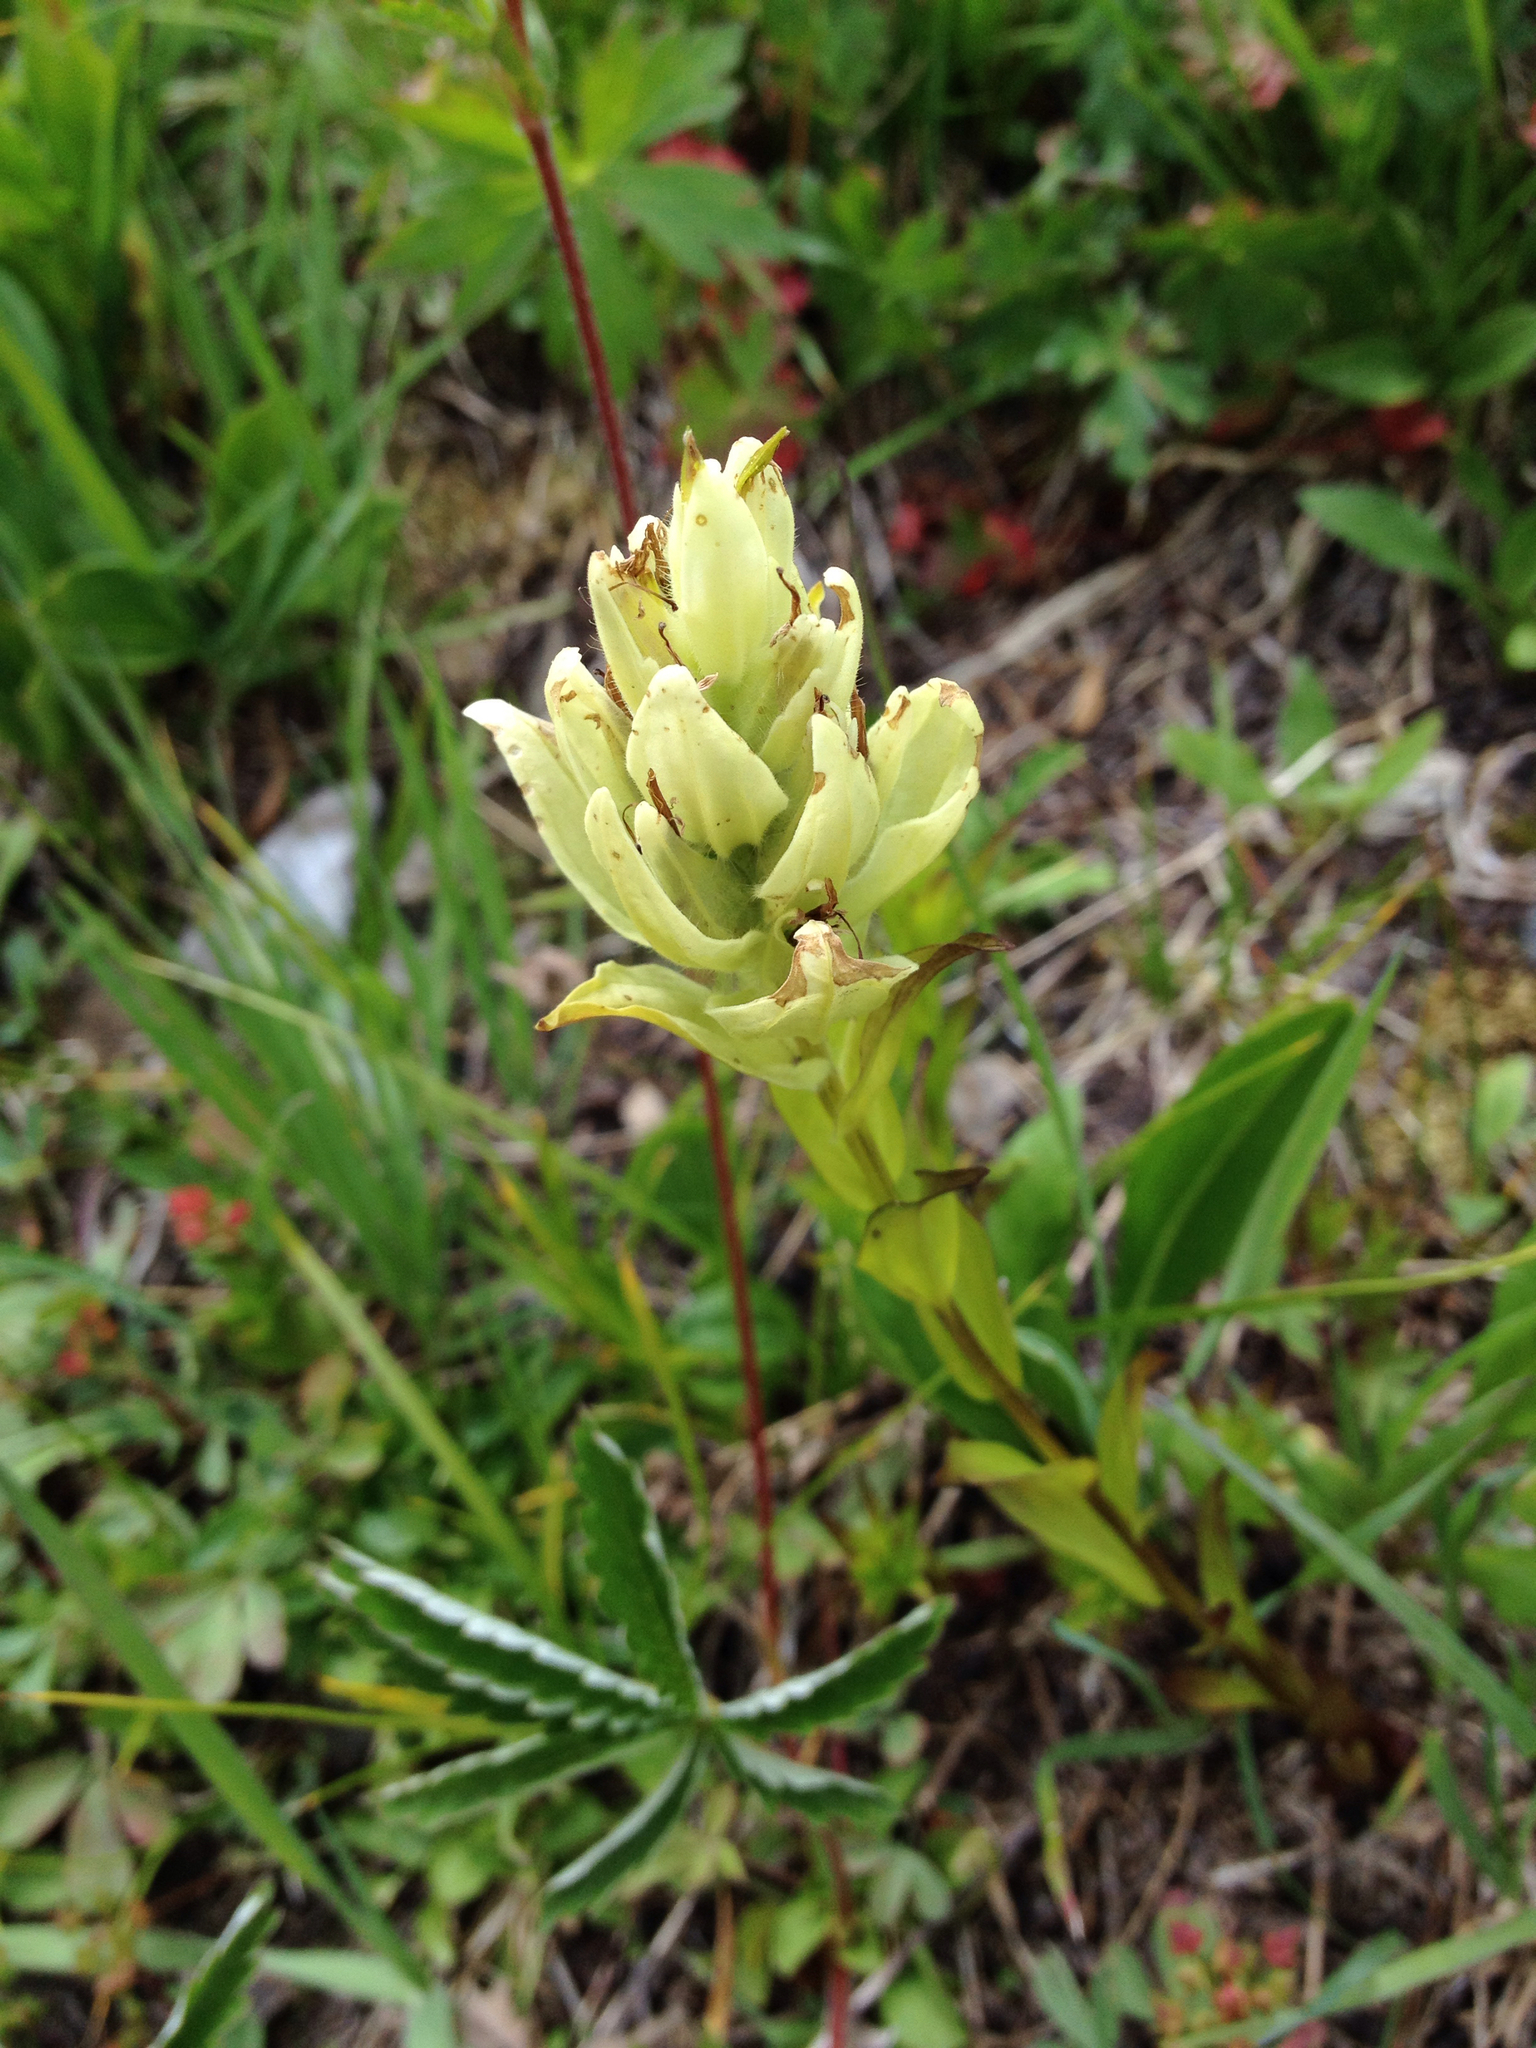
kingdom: Plantae
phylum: Tracheophyta
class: Magnoliopsida
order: Lamiales
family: Orobanchaceae
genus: Castilleja
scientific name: Castilleja septentrionalis
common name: Northeastern paintbrush
